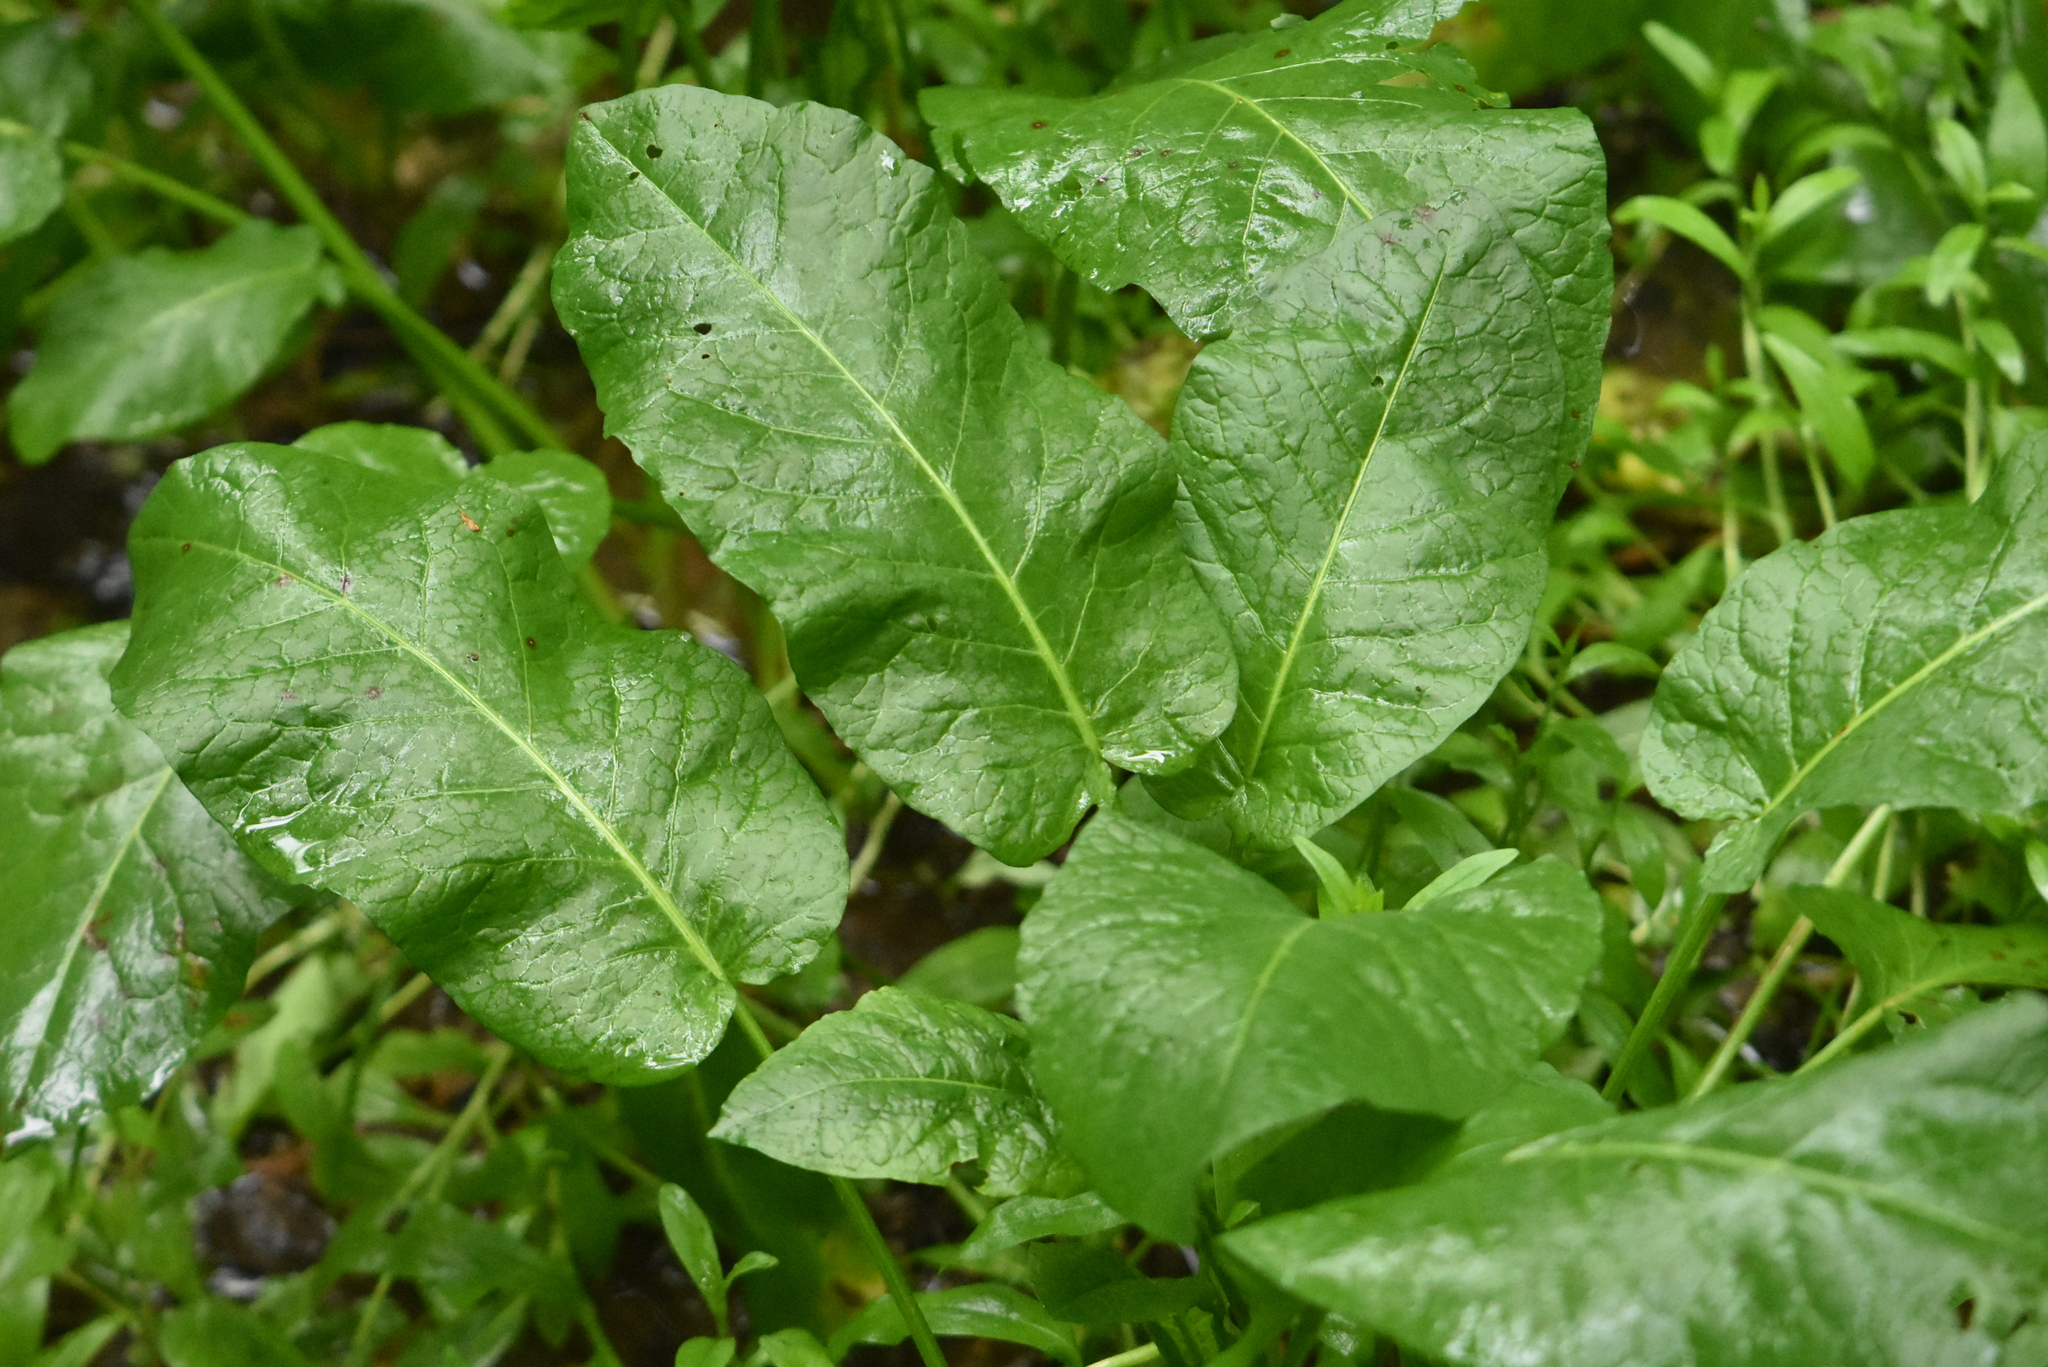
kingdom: Plantae
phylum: Tracheophyta
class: Magnoliopsida
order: Caryophyllales
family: Polygonaceae
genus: Rumex
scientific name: Rumex obtusifolius
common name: Bitter dock
